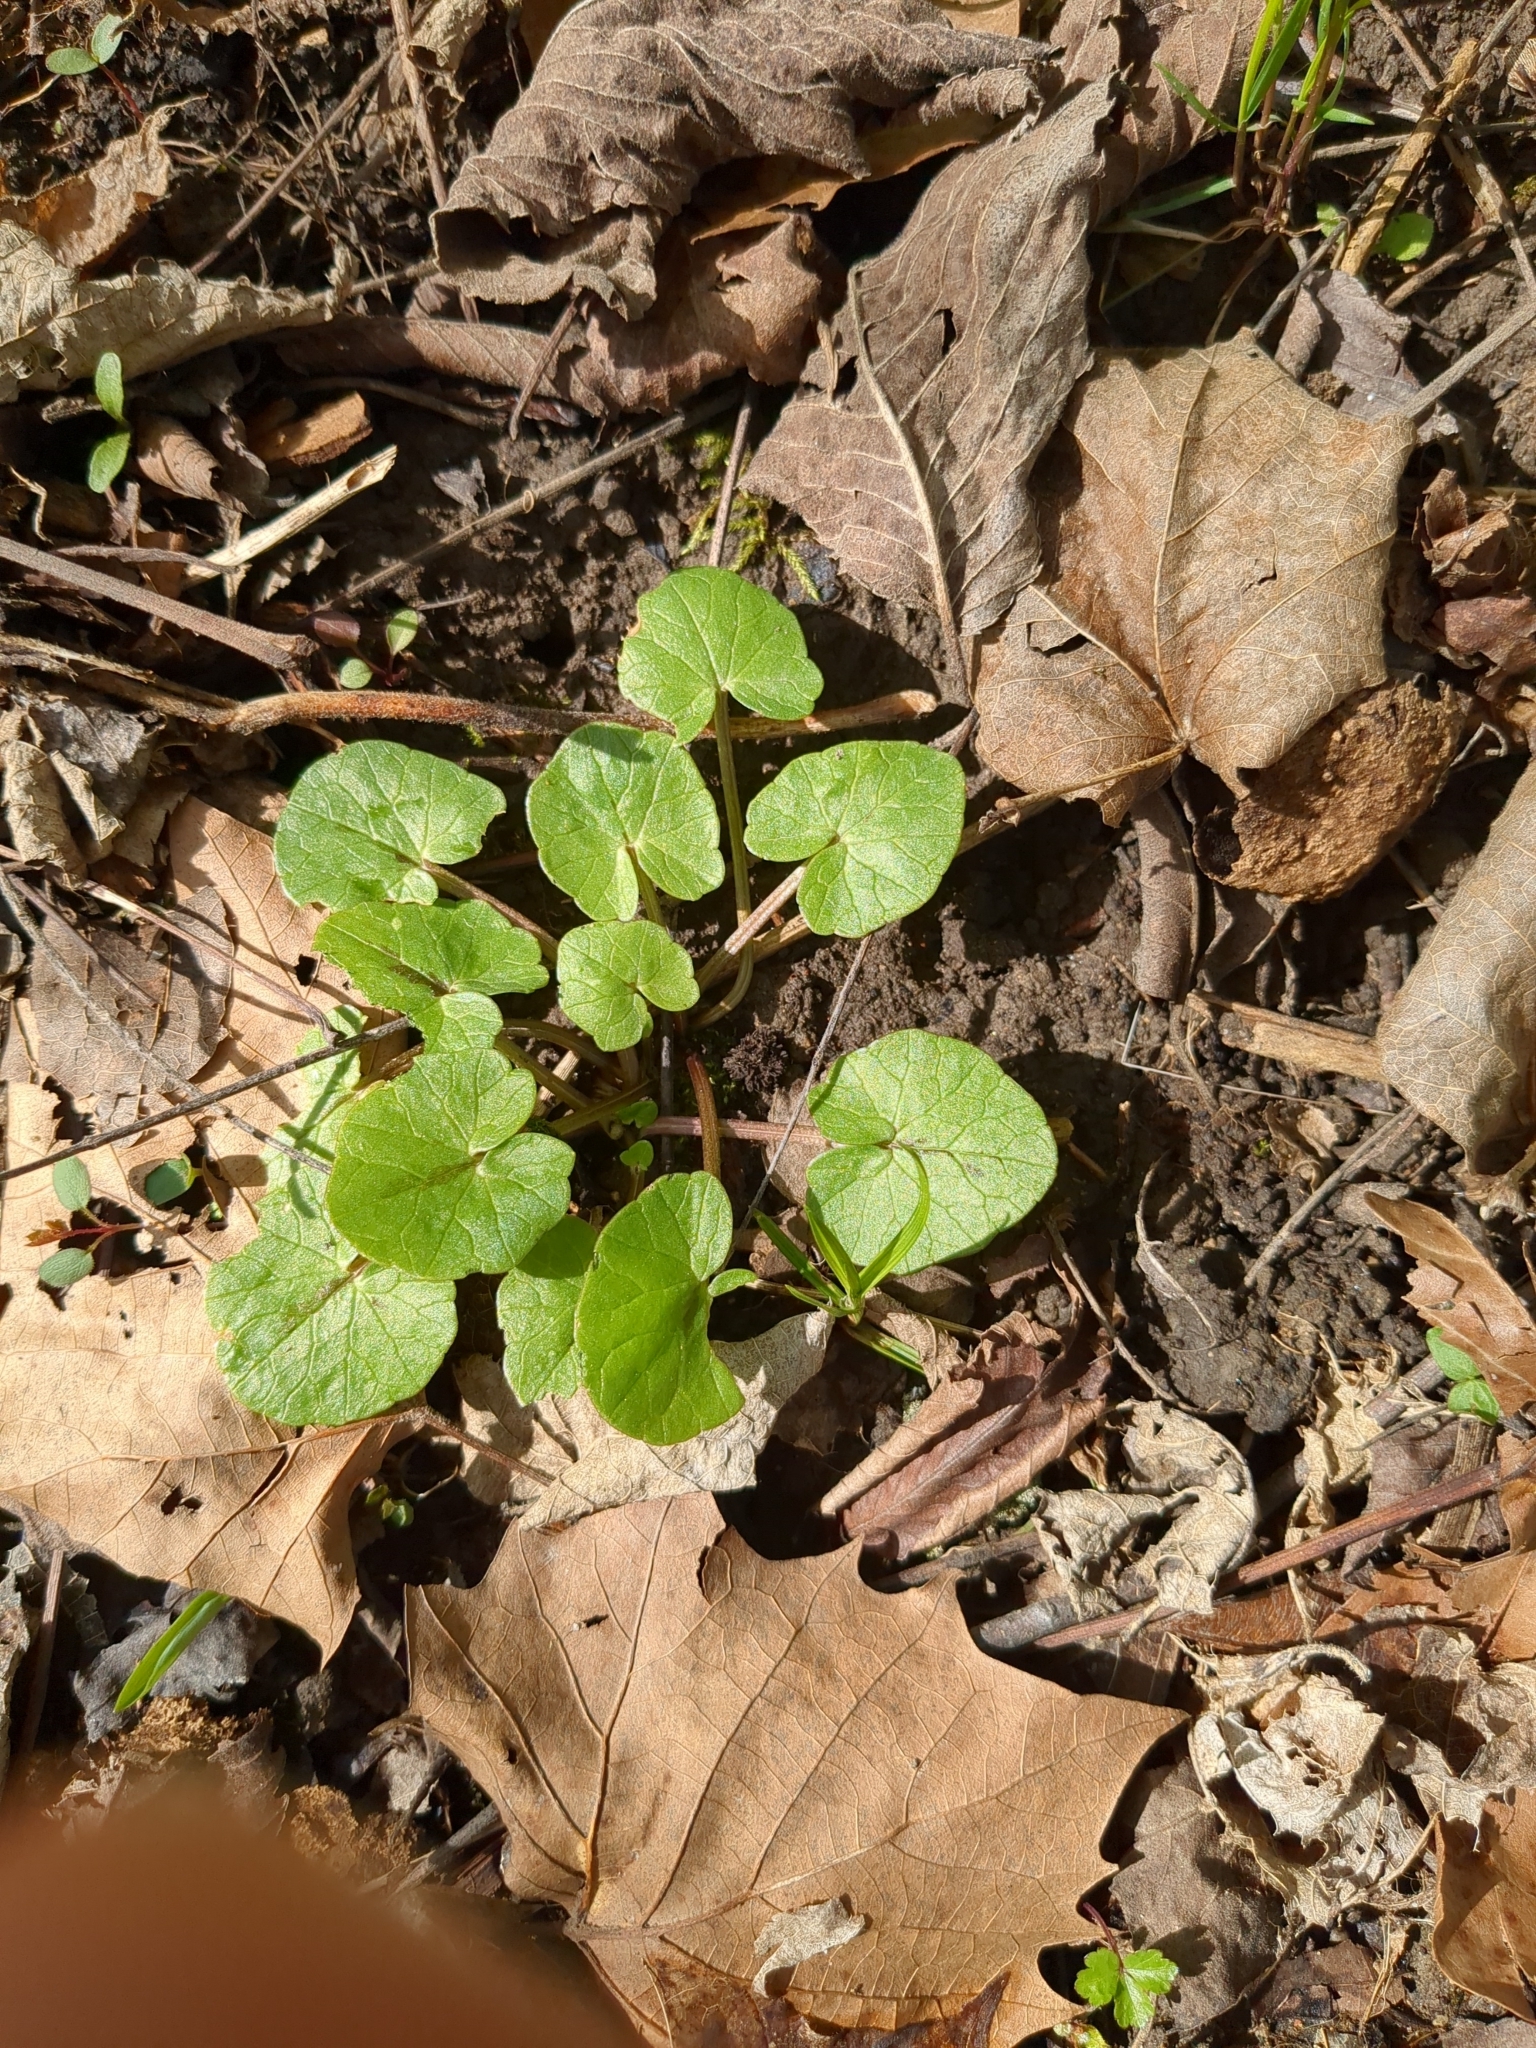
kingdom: Plantae
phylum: Tracheophyta
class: Magnoliopsida
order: Ranunculales
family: Ranunculaceae
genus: Ficaria
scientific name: Ficaria verna
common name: Lesser celandine
